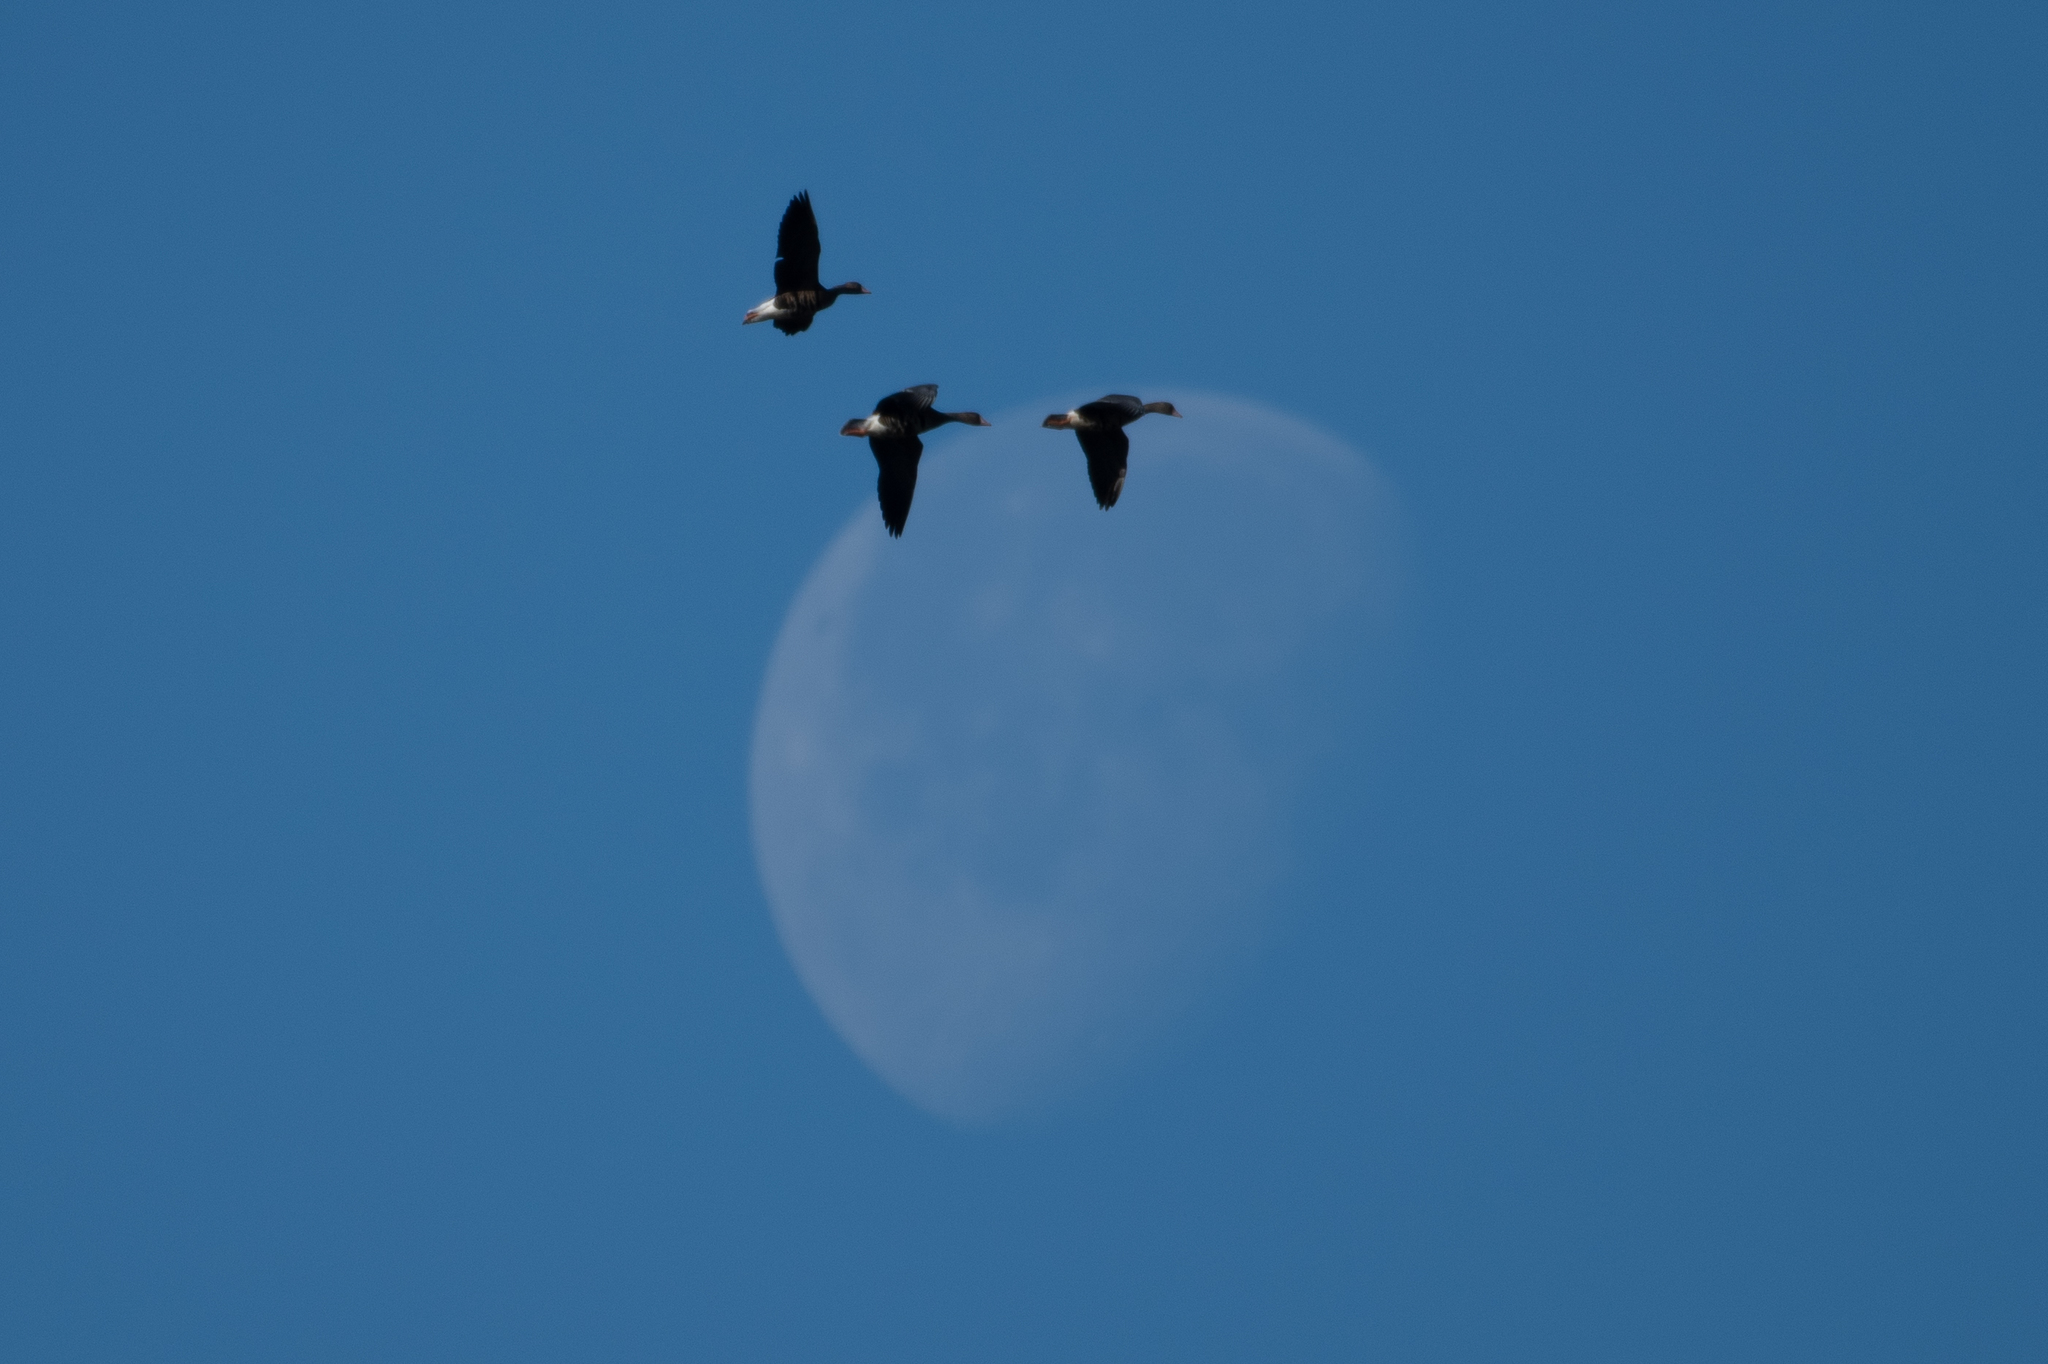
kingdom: Animalia
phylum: Chordata
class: Aves
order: Anseriformes
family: Anatidae
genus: Anser
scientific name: Anser albifrons
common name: Greater white-fronted goose
